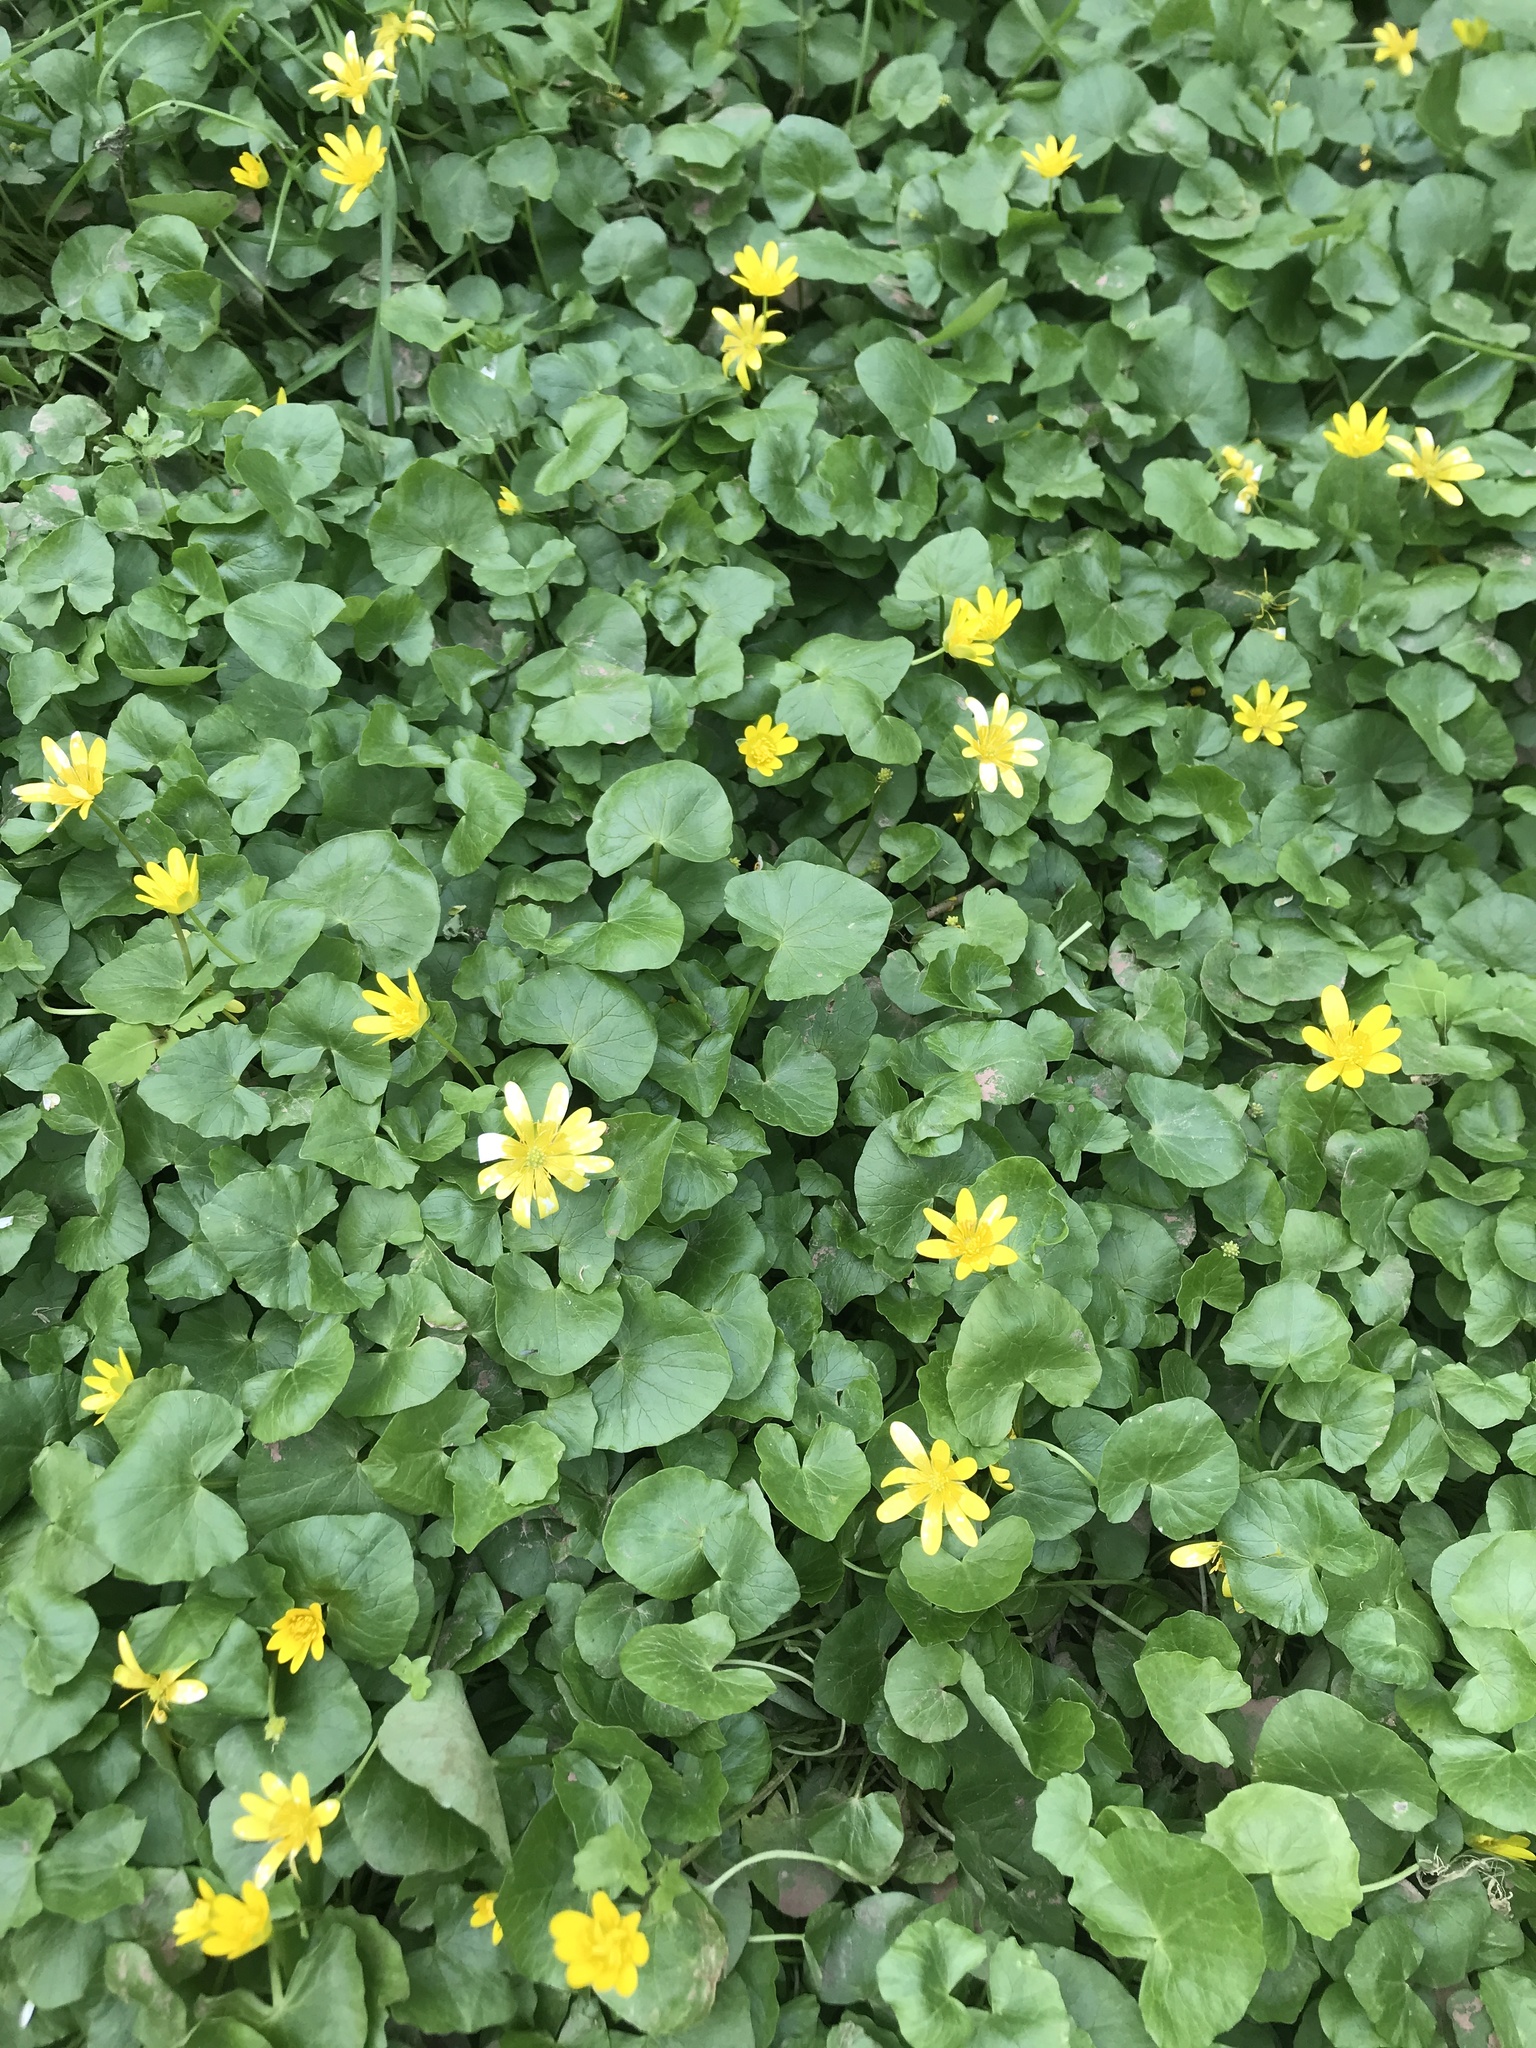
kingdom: Plantae
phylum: Tracheophyta
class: Magnoliopsida
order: Ranunculales
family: Ranunculaceae
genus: Ficaria
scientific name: Ficaria verna
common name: Lesser celandine
